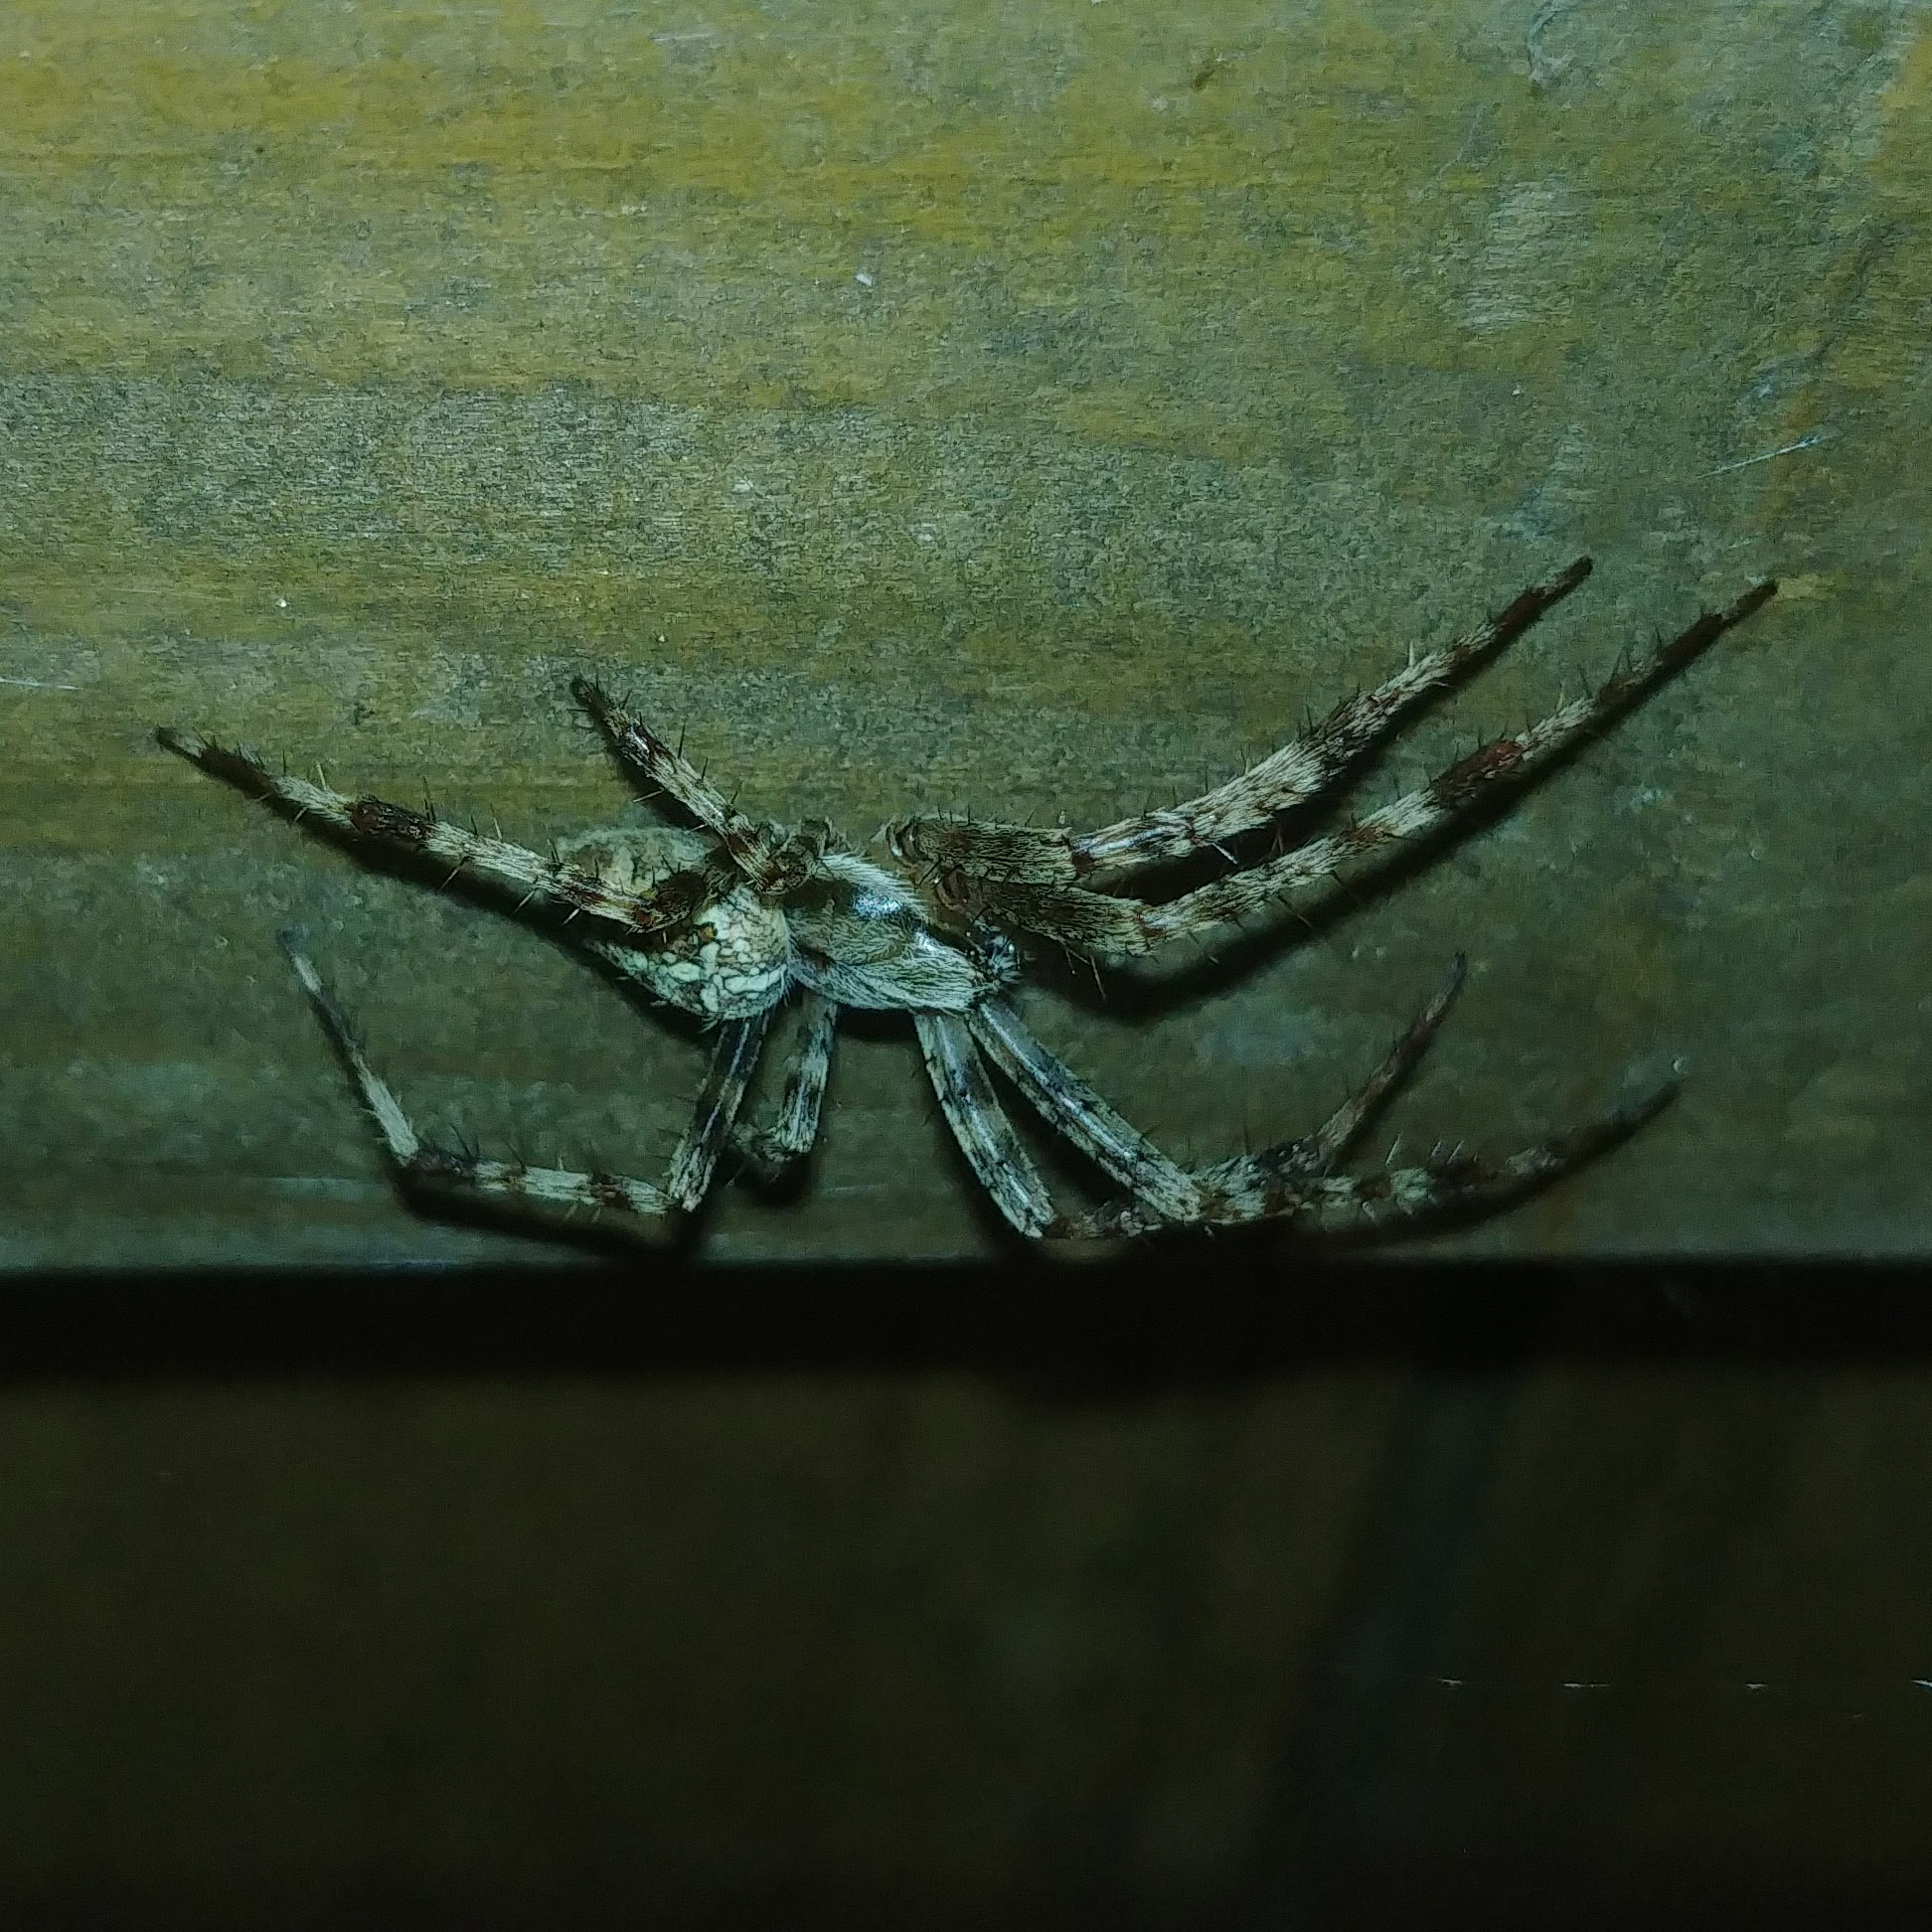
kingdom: Animalia
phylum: Arthropoda
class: Arachnida
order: Araneae
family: Araneidae
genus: Araneus
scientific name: Araneus diadematus
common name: Cross orbweaver
